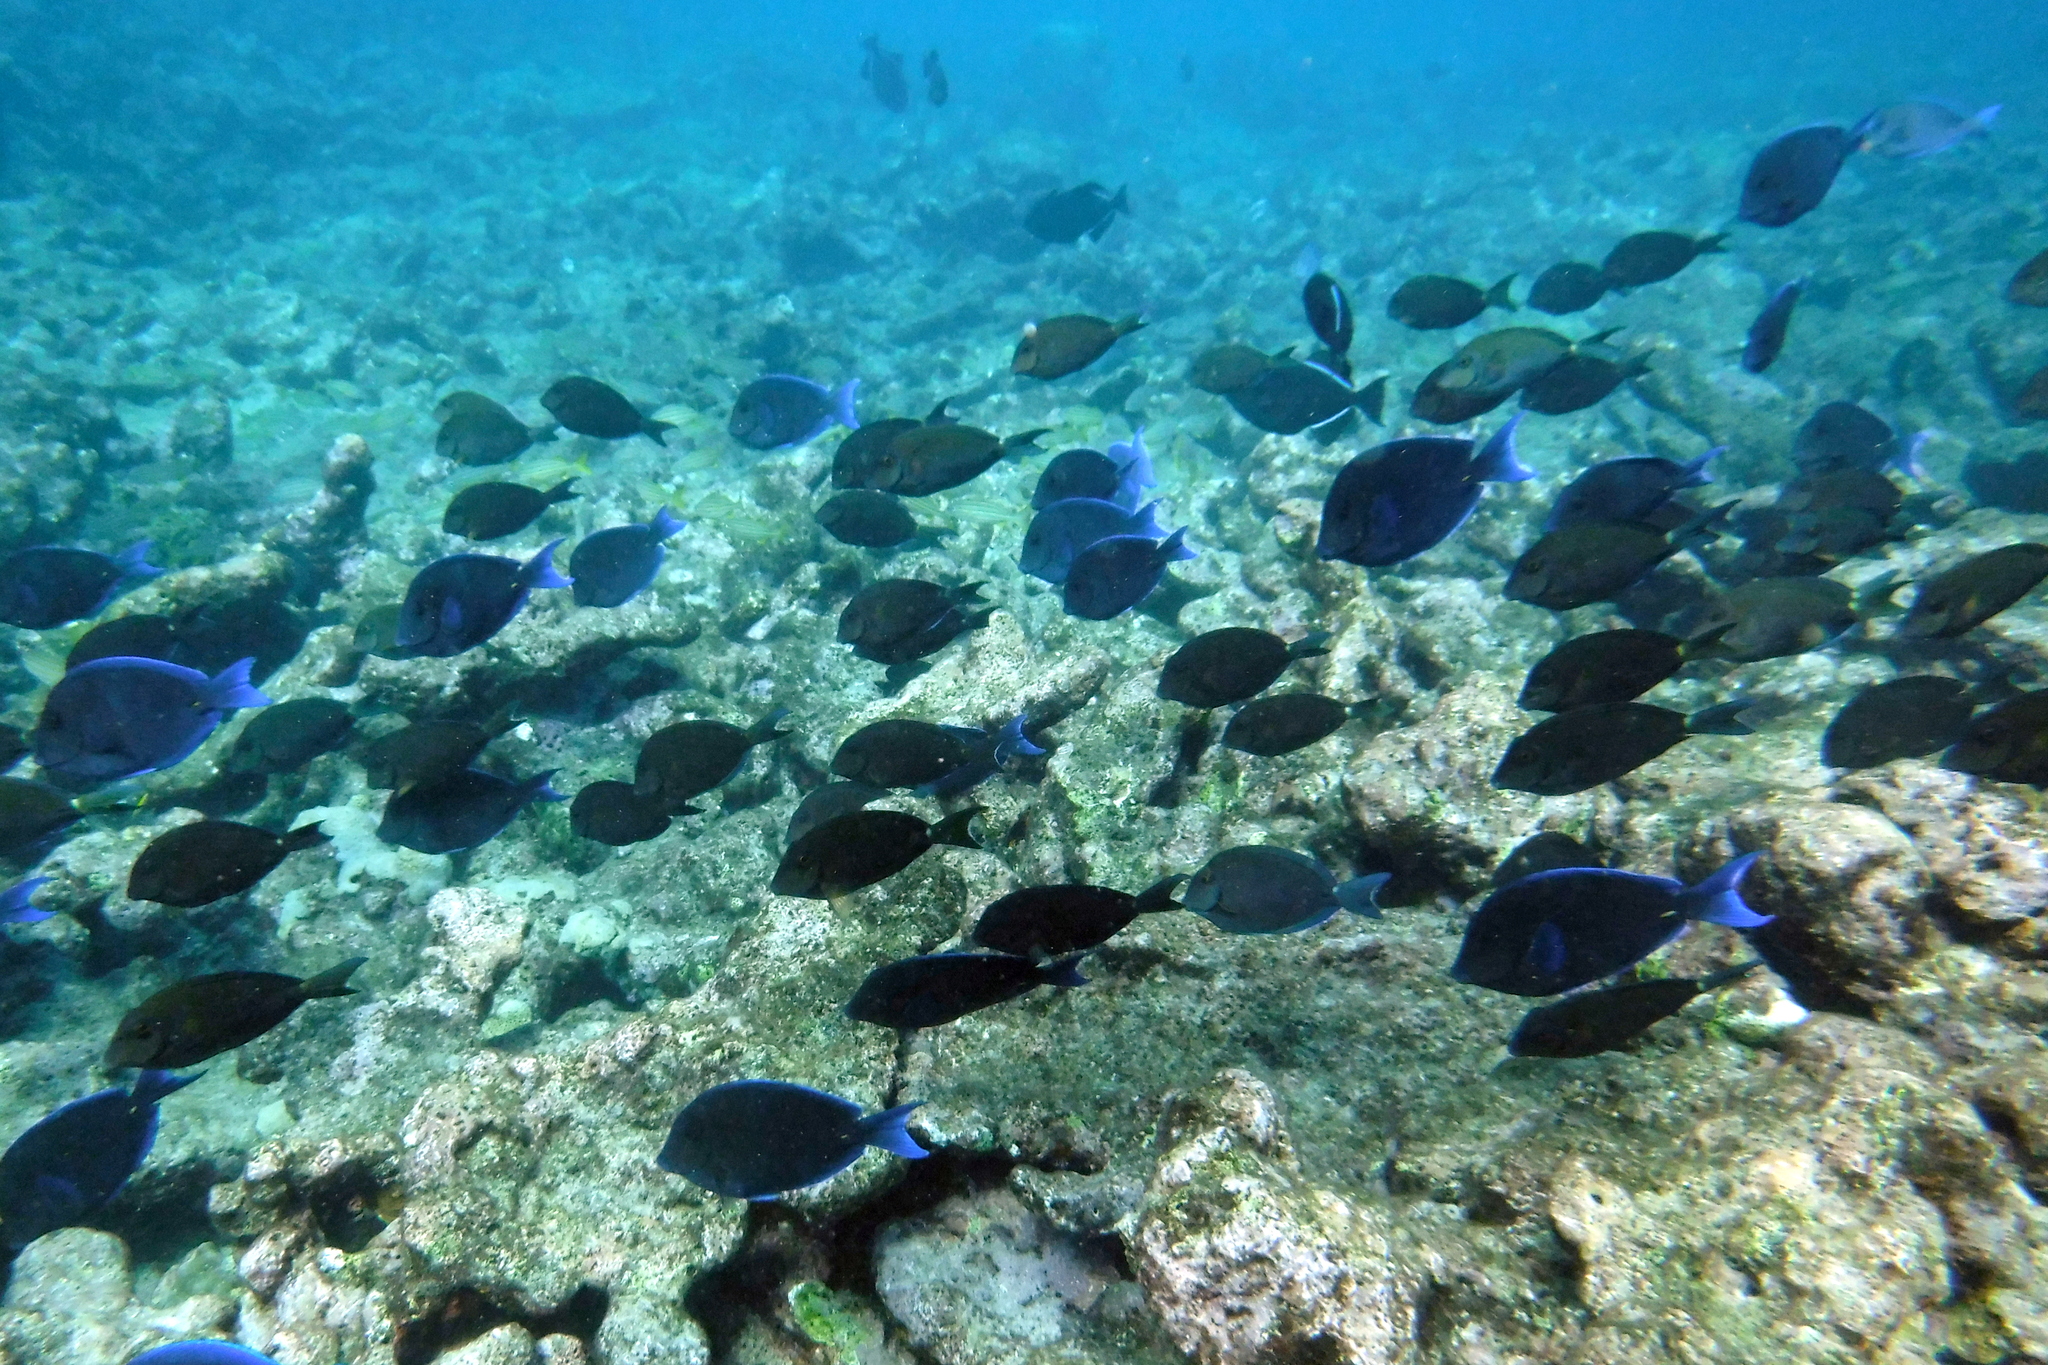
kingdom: Animalia
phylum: Chordata
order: Perciformes
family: Acanthuridae
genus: Acanthurus
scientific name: Acanthurus coeruleus
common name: Blue tang
